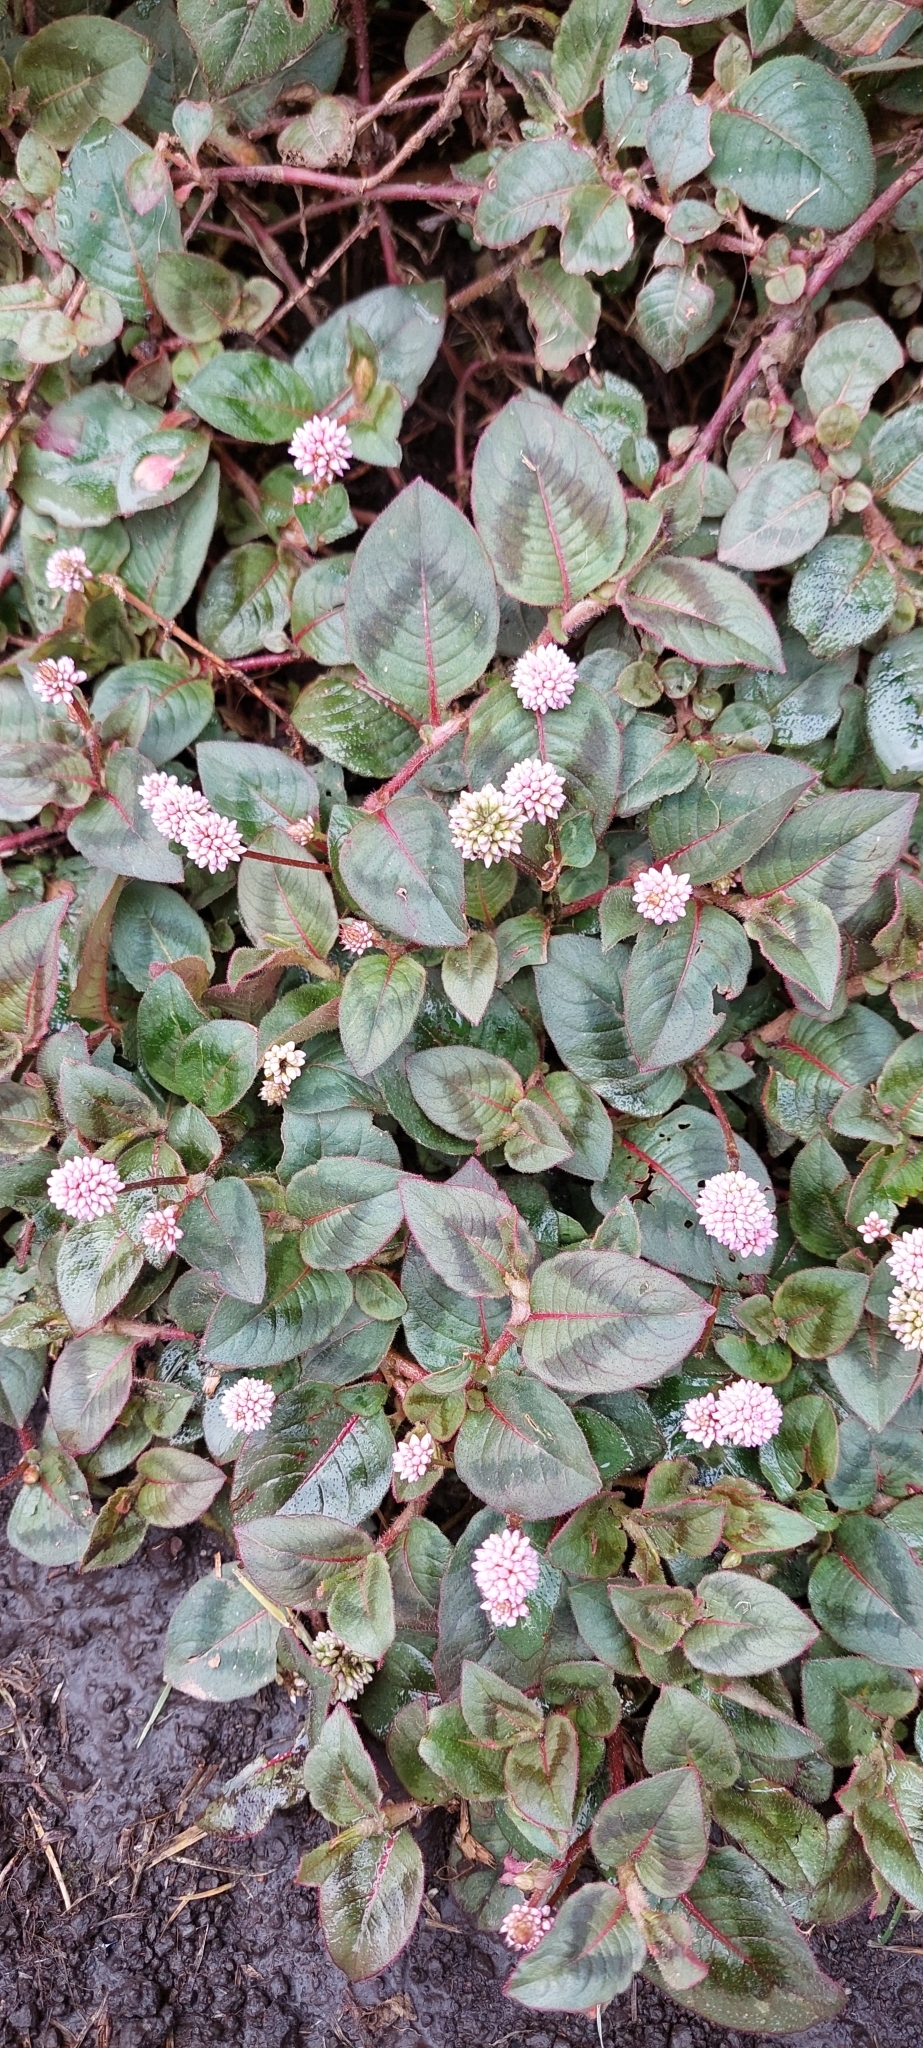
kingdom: Plantae
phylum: Tracheophyta
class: Magnoliopsida
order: Caryophyllales
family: Polygonaceae
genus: Persicaria
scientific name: Persicaria capitata
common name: Pinkhead smartweed
